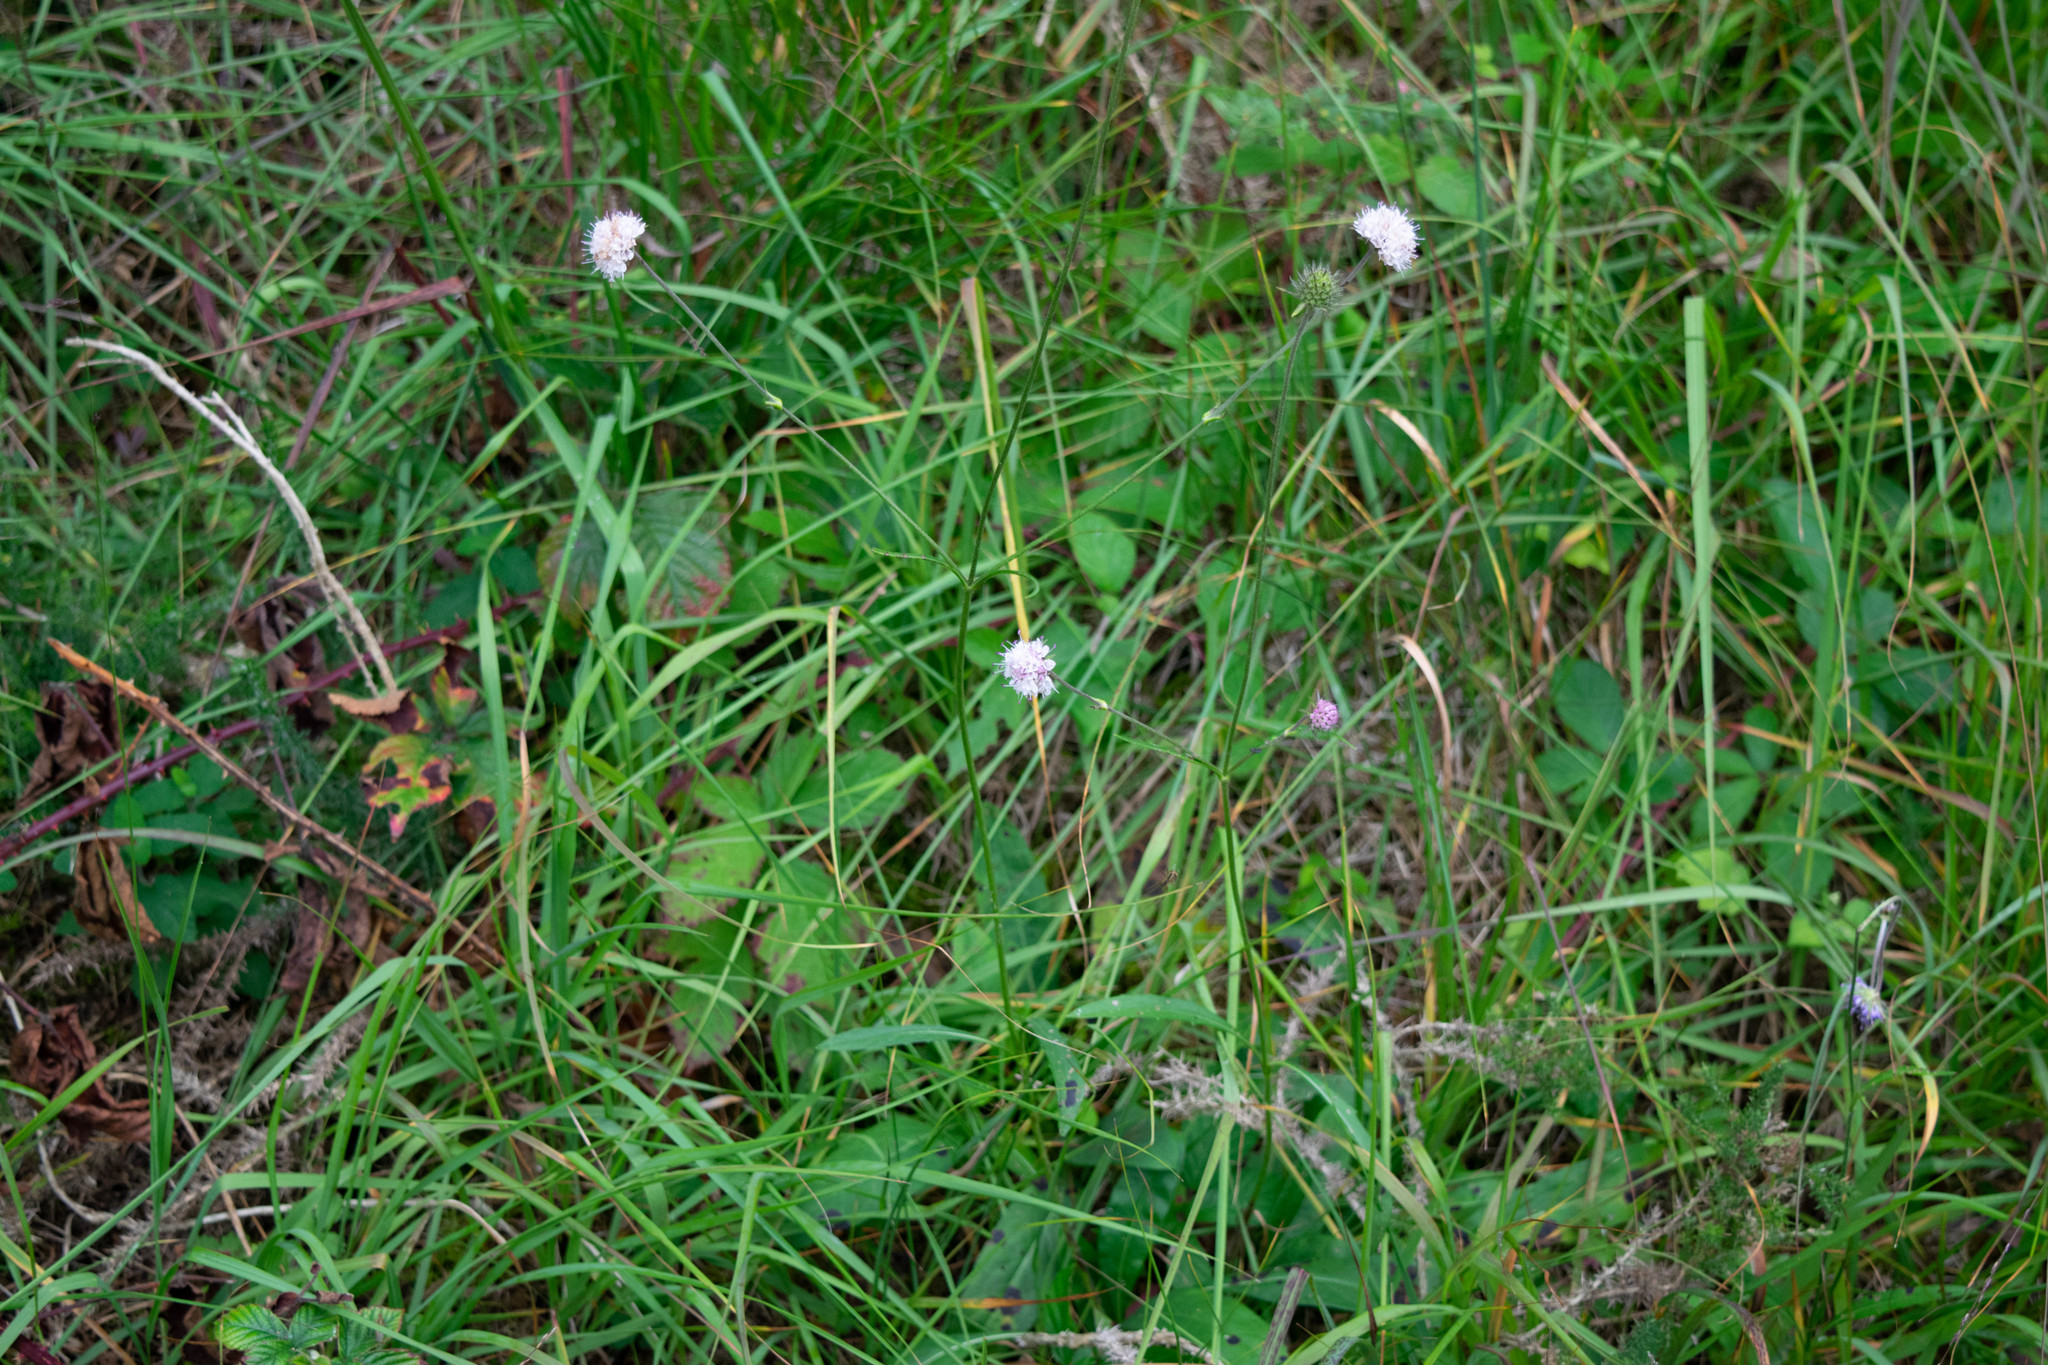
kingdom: Plantae
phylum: Tracheophyta
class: Magnoliopsida
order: Dipsacales
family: Caprifoliaceae
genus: Succisa
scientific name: Succisa pratensis
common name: Devil's-bit
